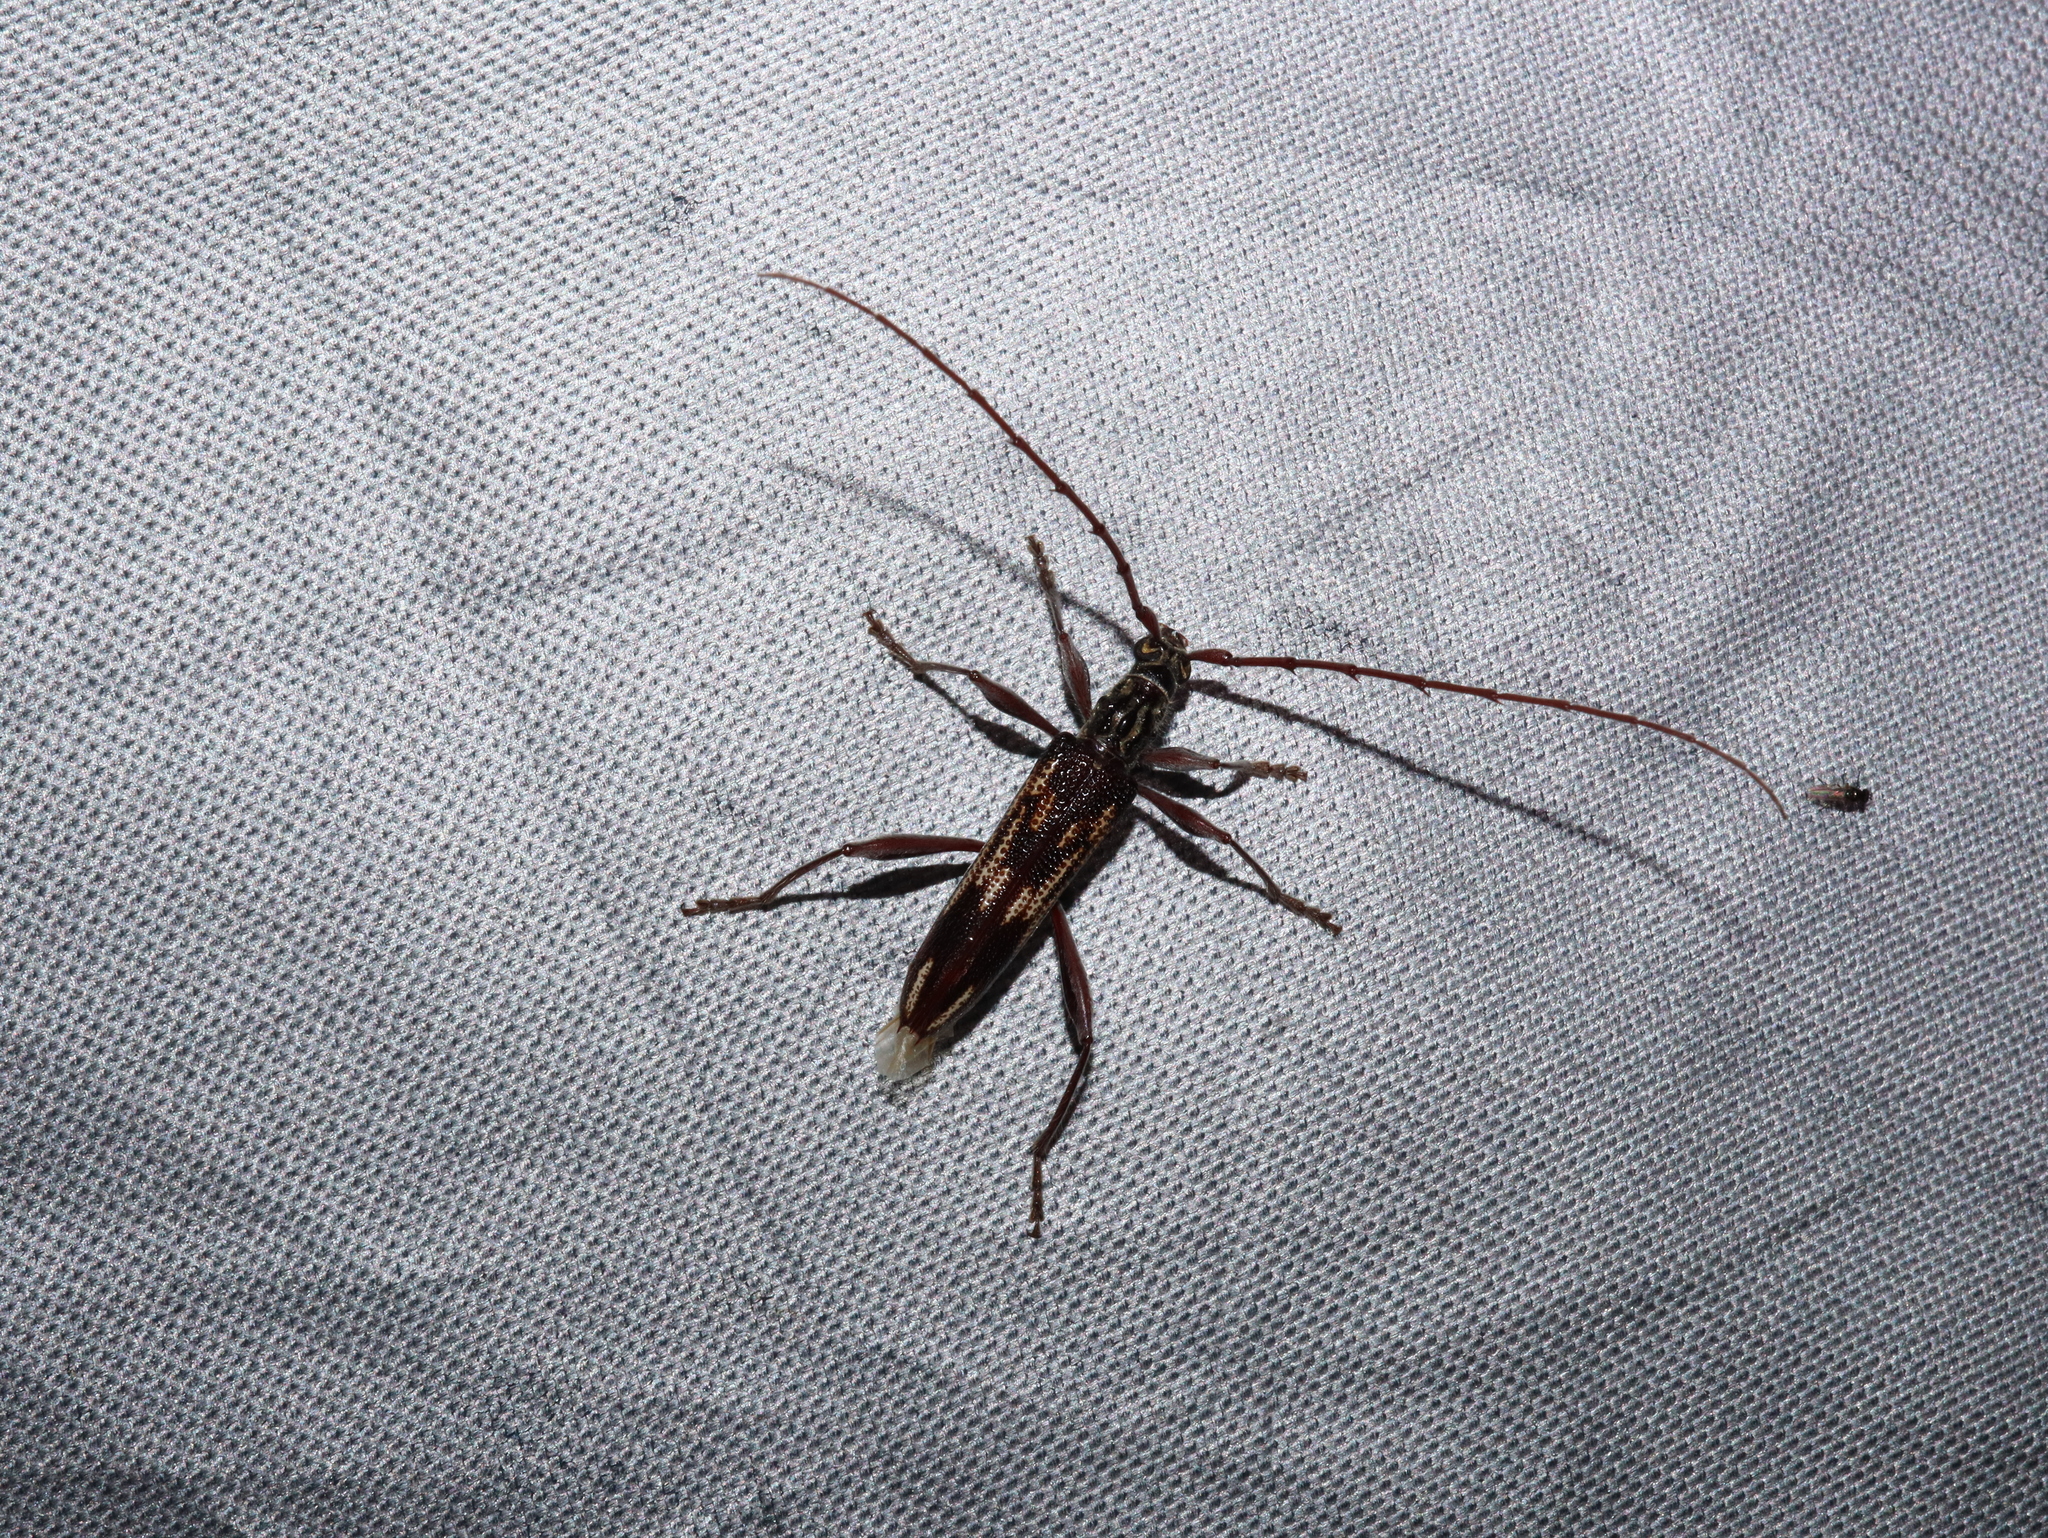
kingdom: Animalia
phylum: Arthropoda
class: Insecta
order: Coleoptera
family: Cerambycidae
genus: Coptocercus
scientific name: Coptocercus rubripes
